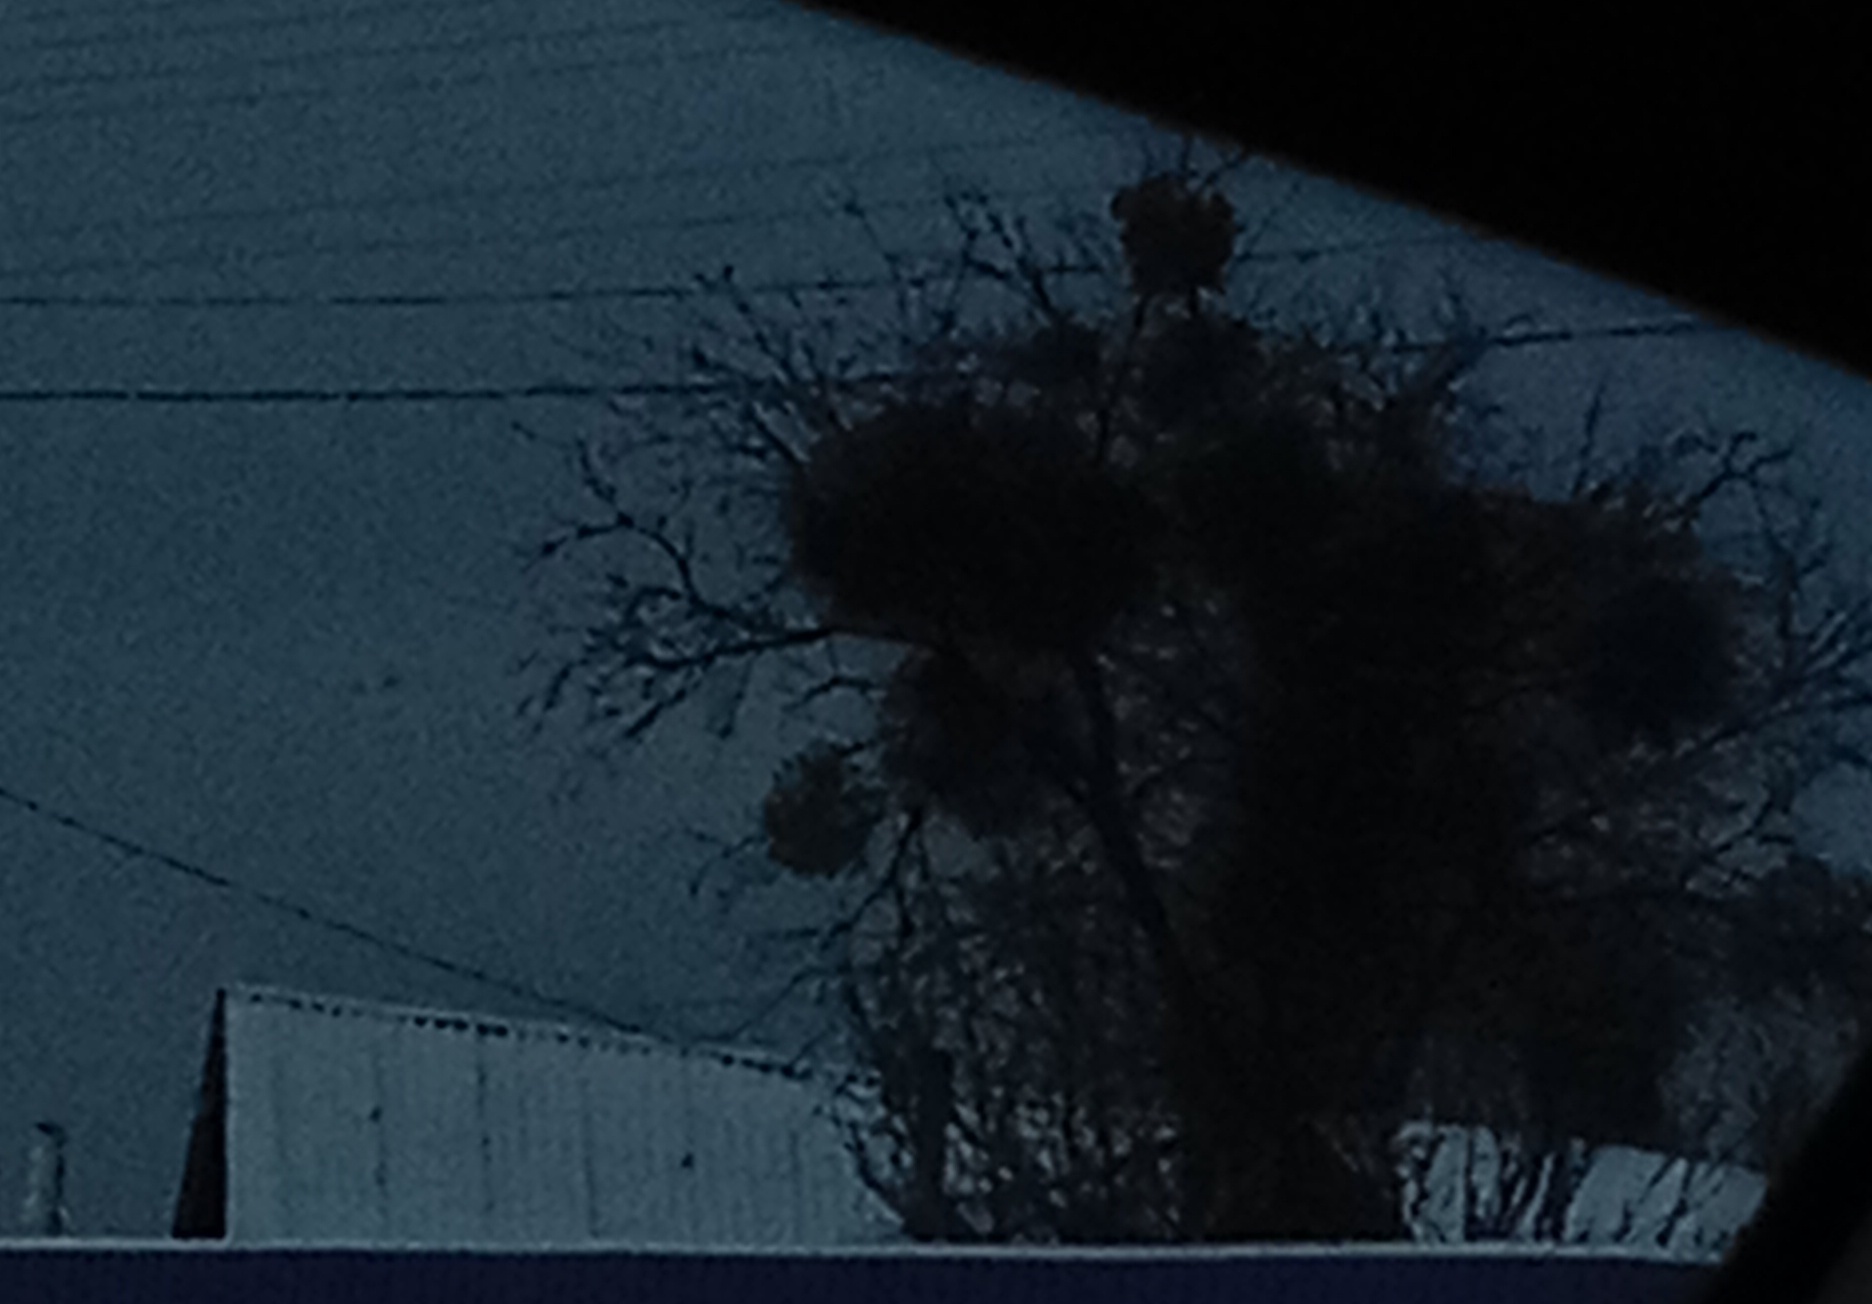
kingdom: Plantae
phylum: Tracheophyta
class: Magnoliopsida
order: Santalales
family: Viscaceae
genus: Viscum
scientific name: Viscum album
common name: Mistletoe
